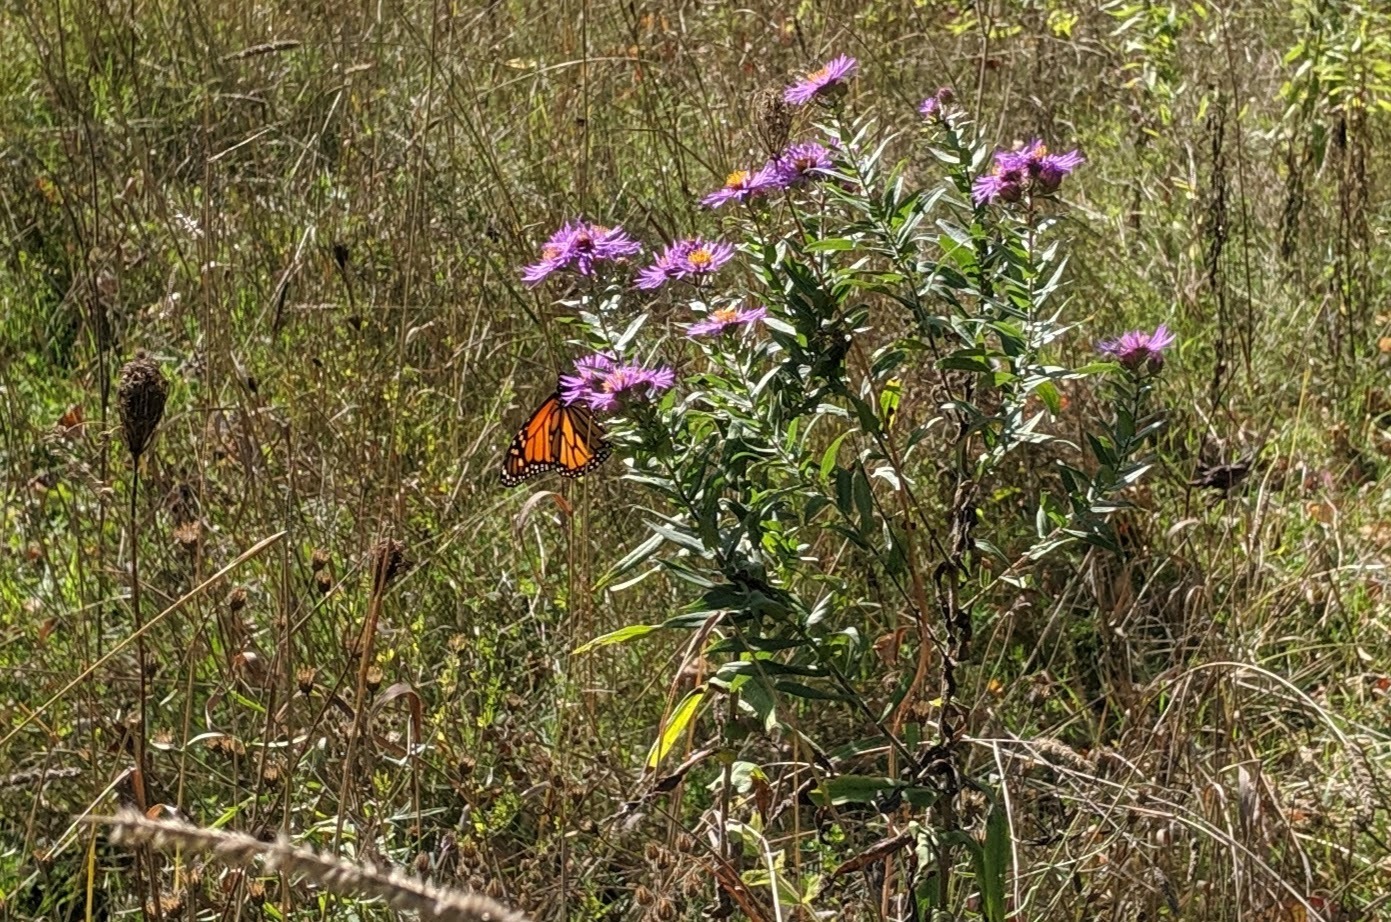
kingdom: Animalia
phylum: Arthropoda
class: Insecta
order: Lepidoptera
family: Nymphalidae
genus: Danaus
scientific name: Danaus plexippus
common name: Monarch
